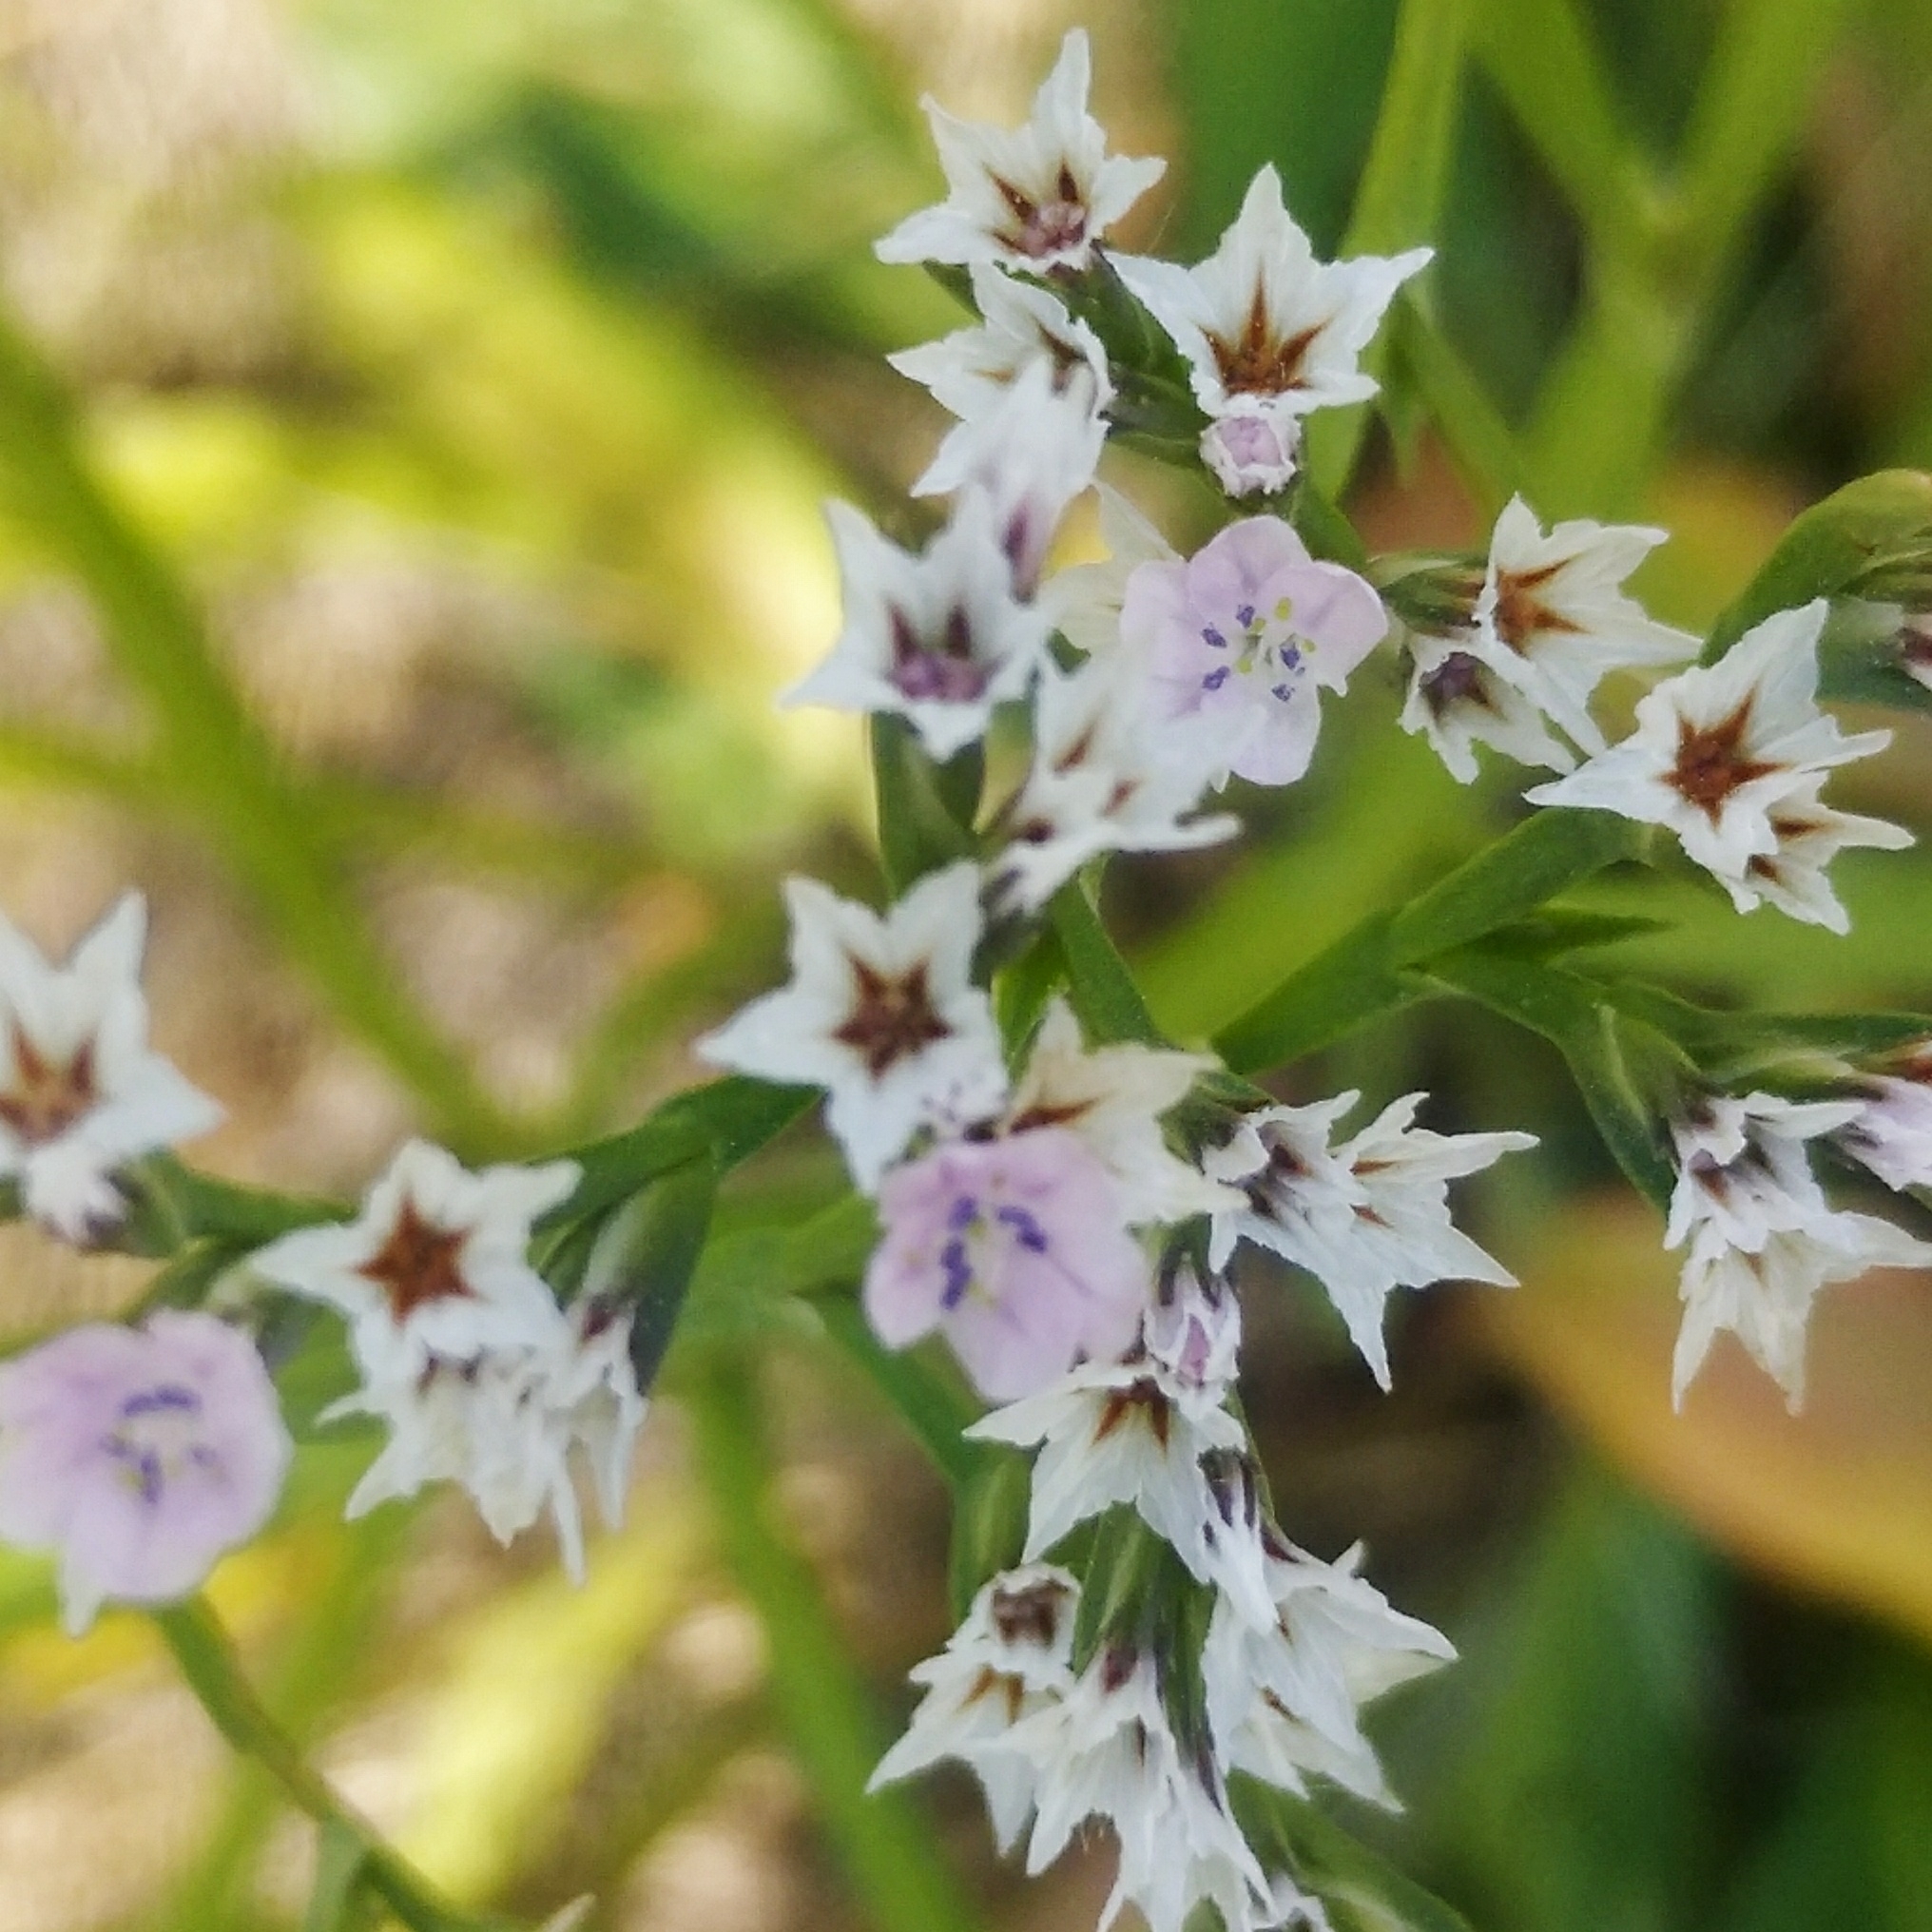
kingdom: Plantae
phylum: Tracheophyta
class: Magnoliopsida
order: Caryophyllales
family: Plumbaginaceae
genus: Goniolimon
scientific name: Goniolimon tataricum
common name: Statice
